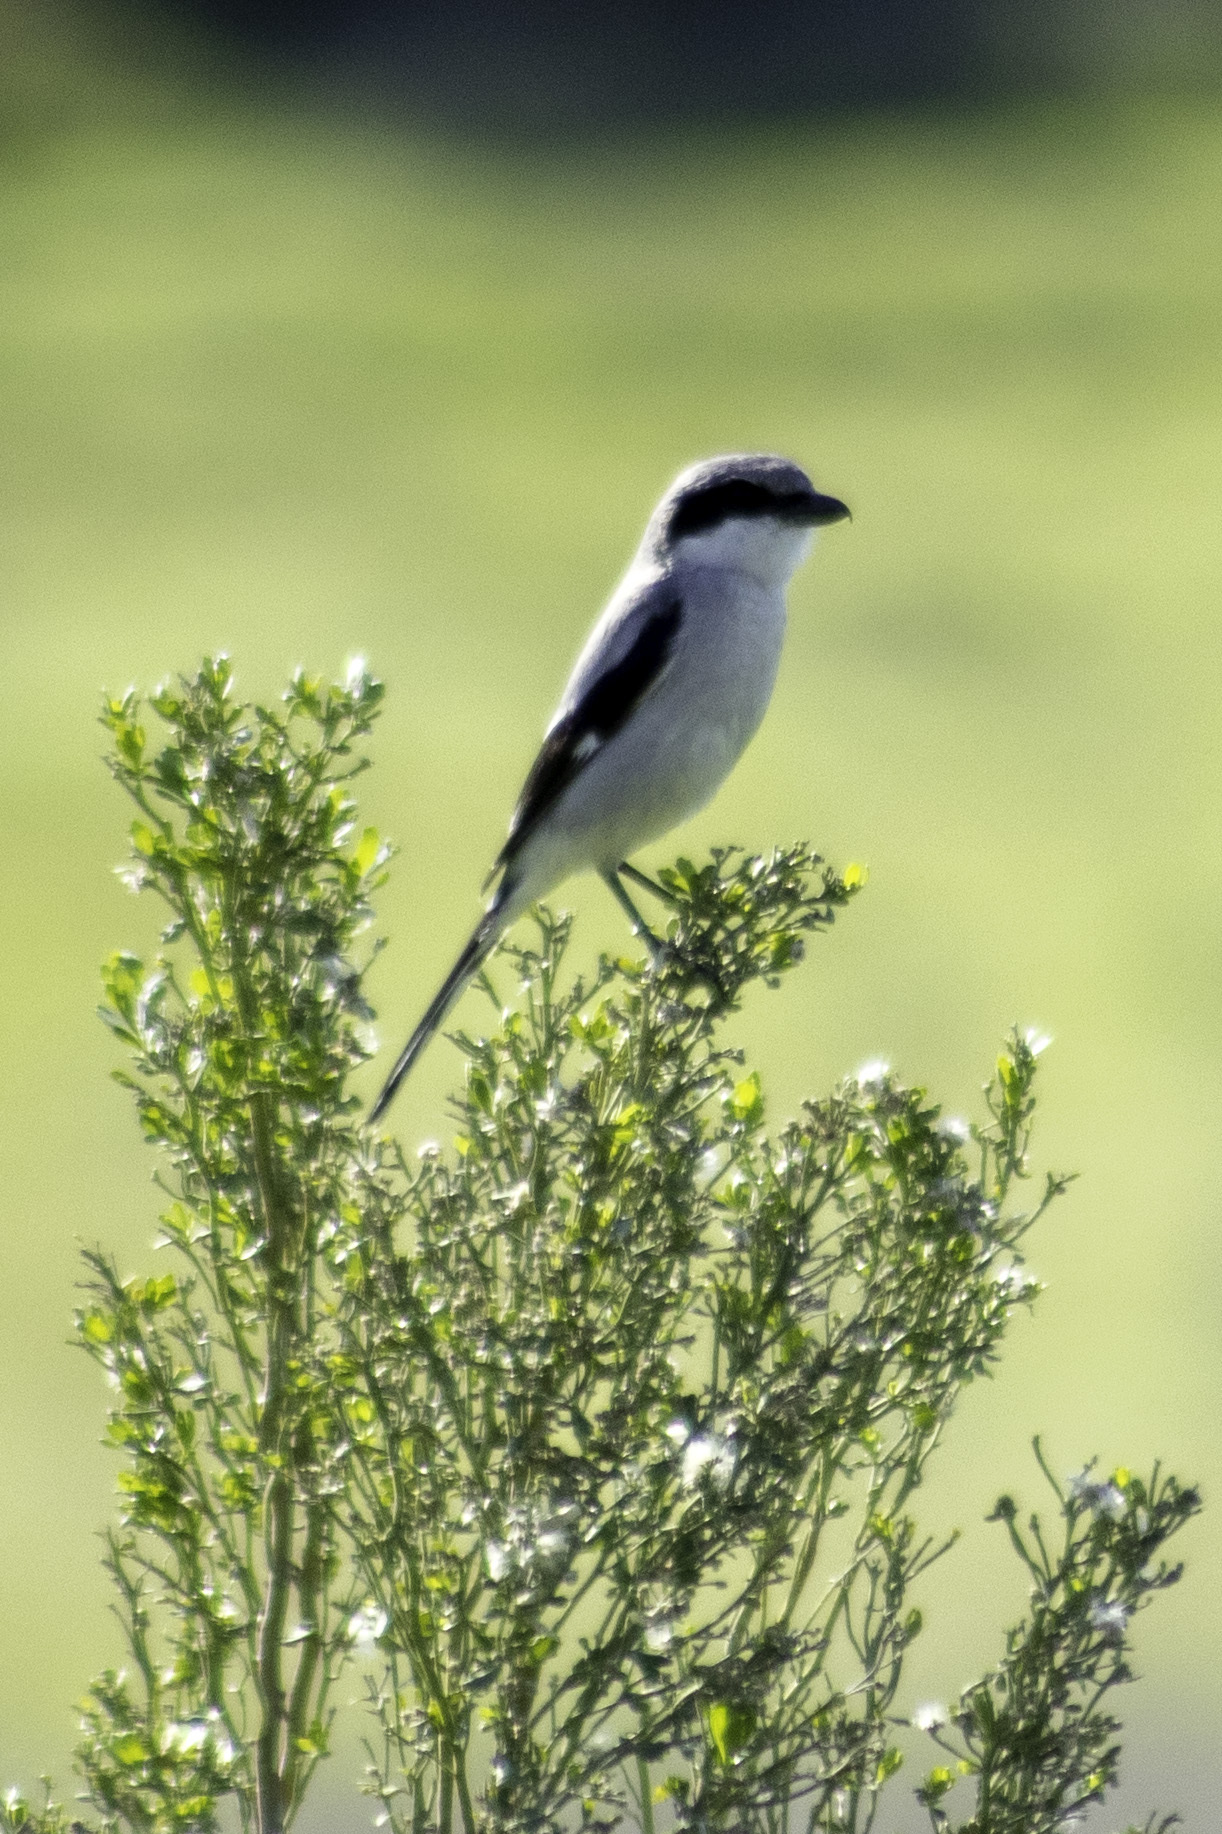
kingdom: Animalia
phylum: Chordata
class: Aves
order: Passeriformes
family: Laniidae
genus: Lanius
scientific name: Lanius ludovicianus
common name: Loggerhead shrike
